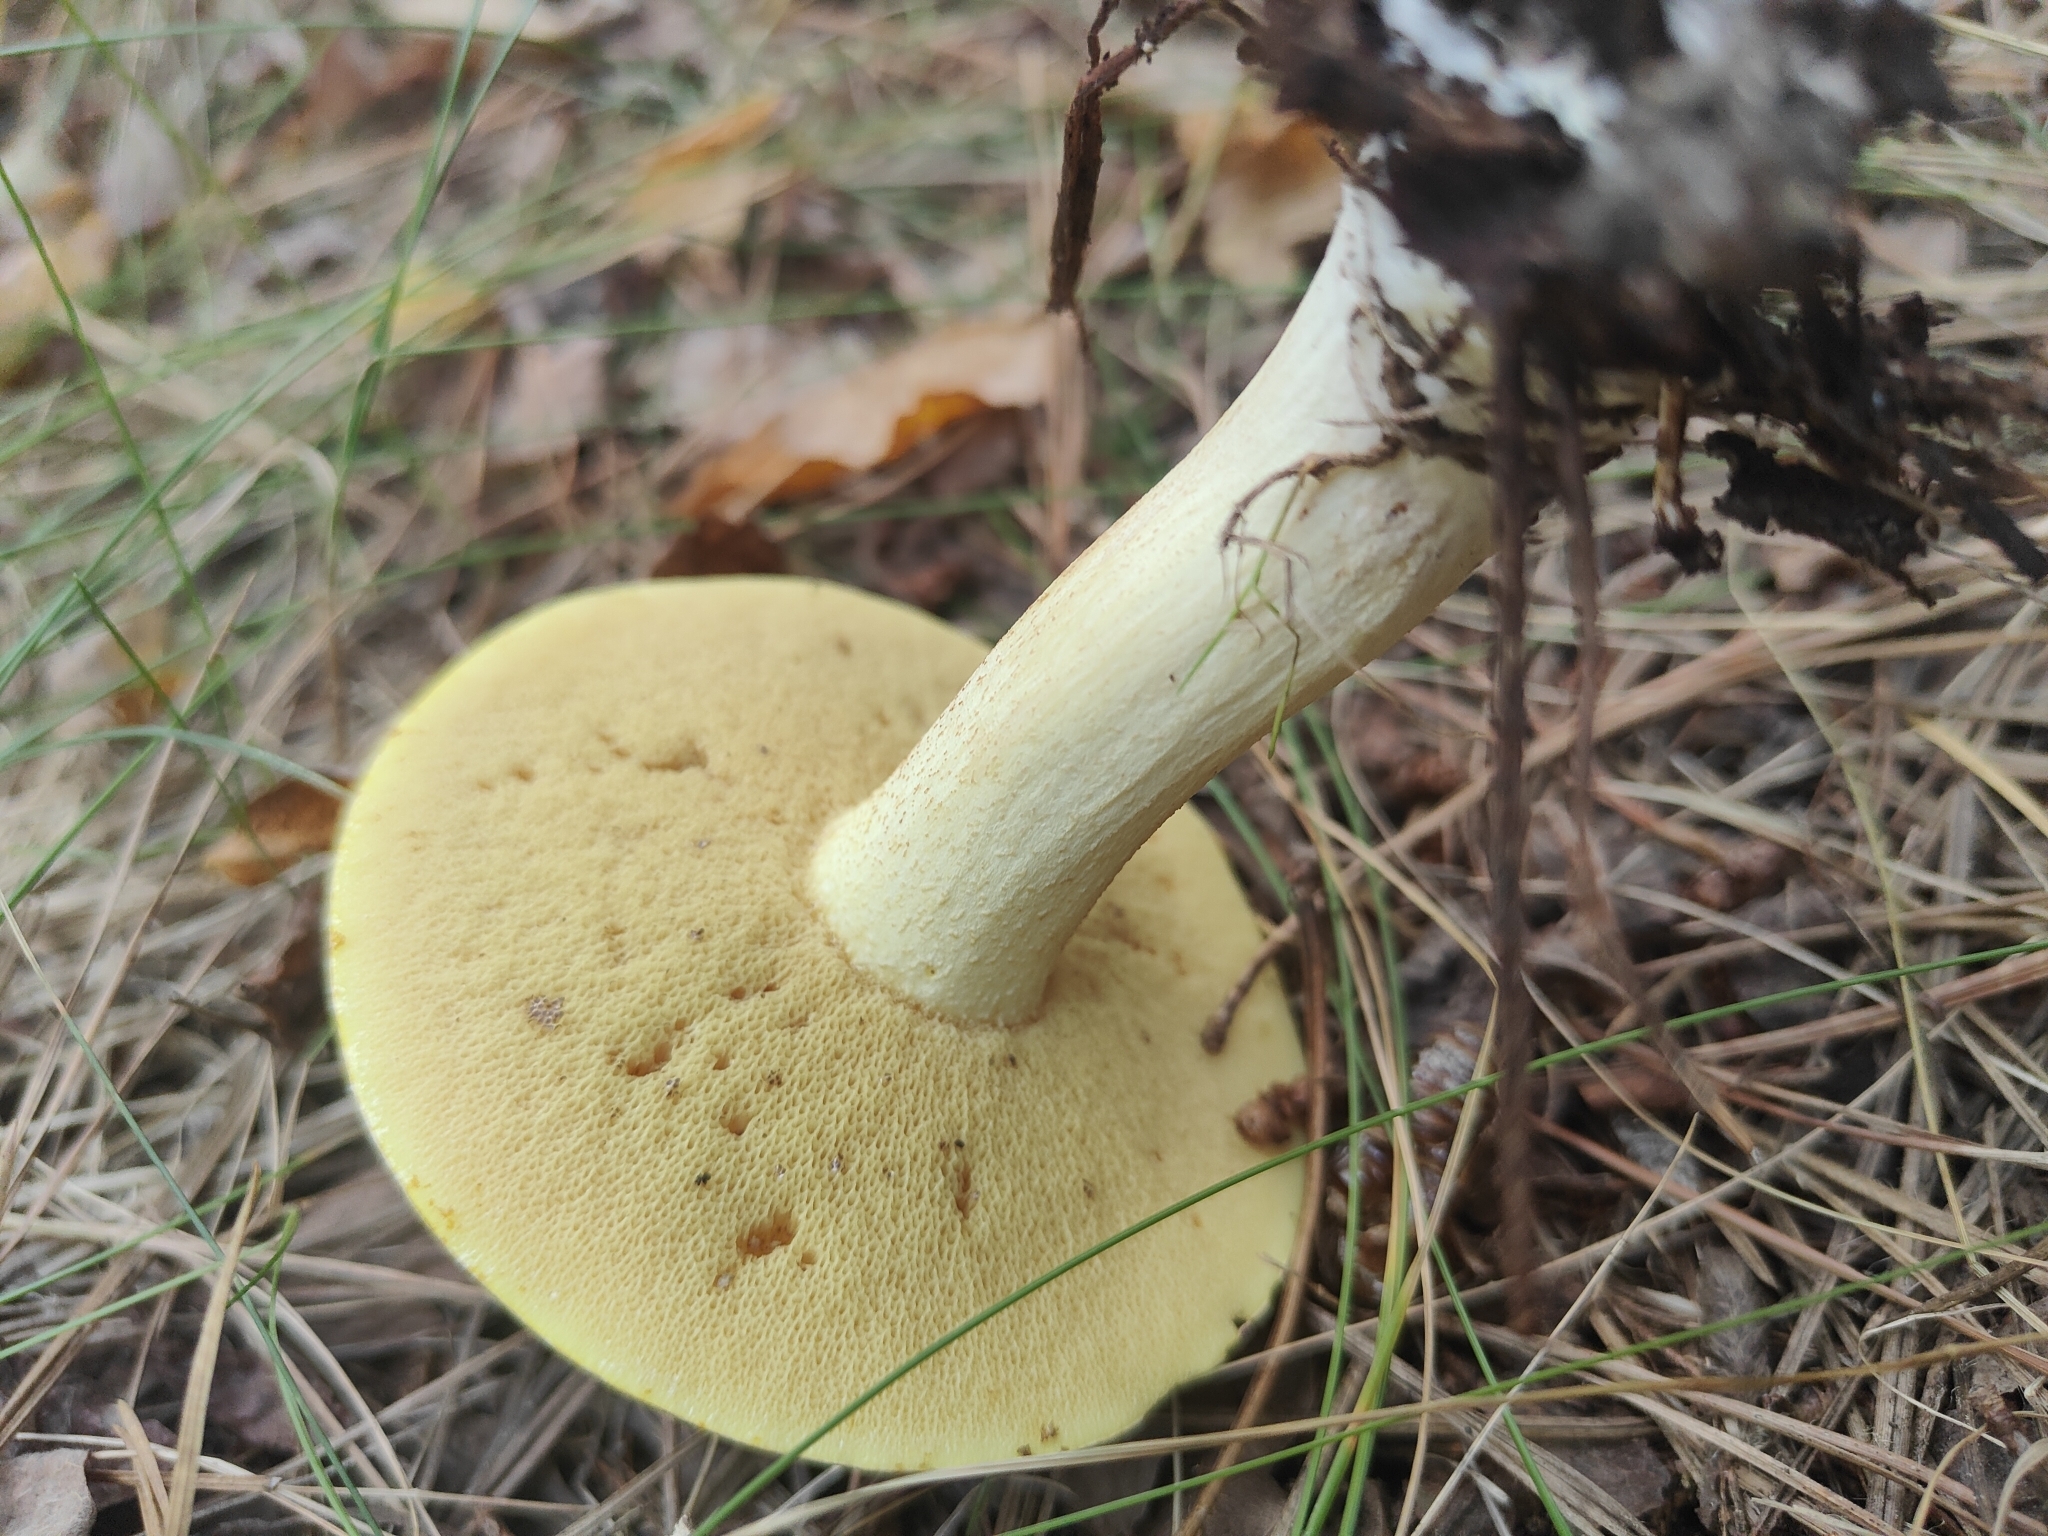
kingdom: Fungi
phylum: Basidiomycota
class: Agaricomycetes
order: Boletales
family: Suillaceae
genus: Suillus
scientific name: Suillus granulatus
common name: Weeping bolete
